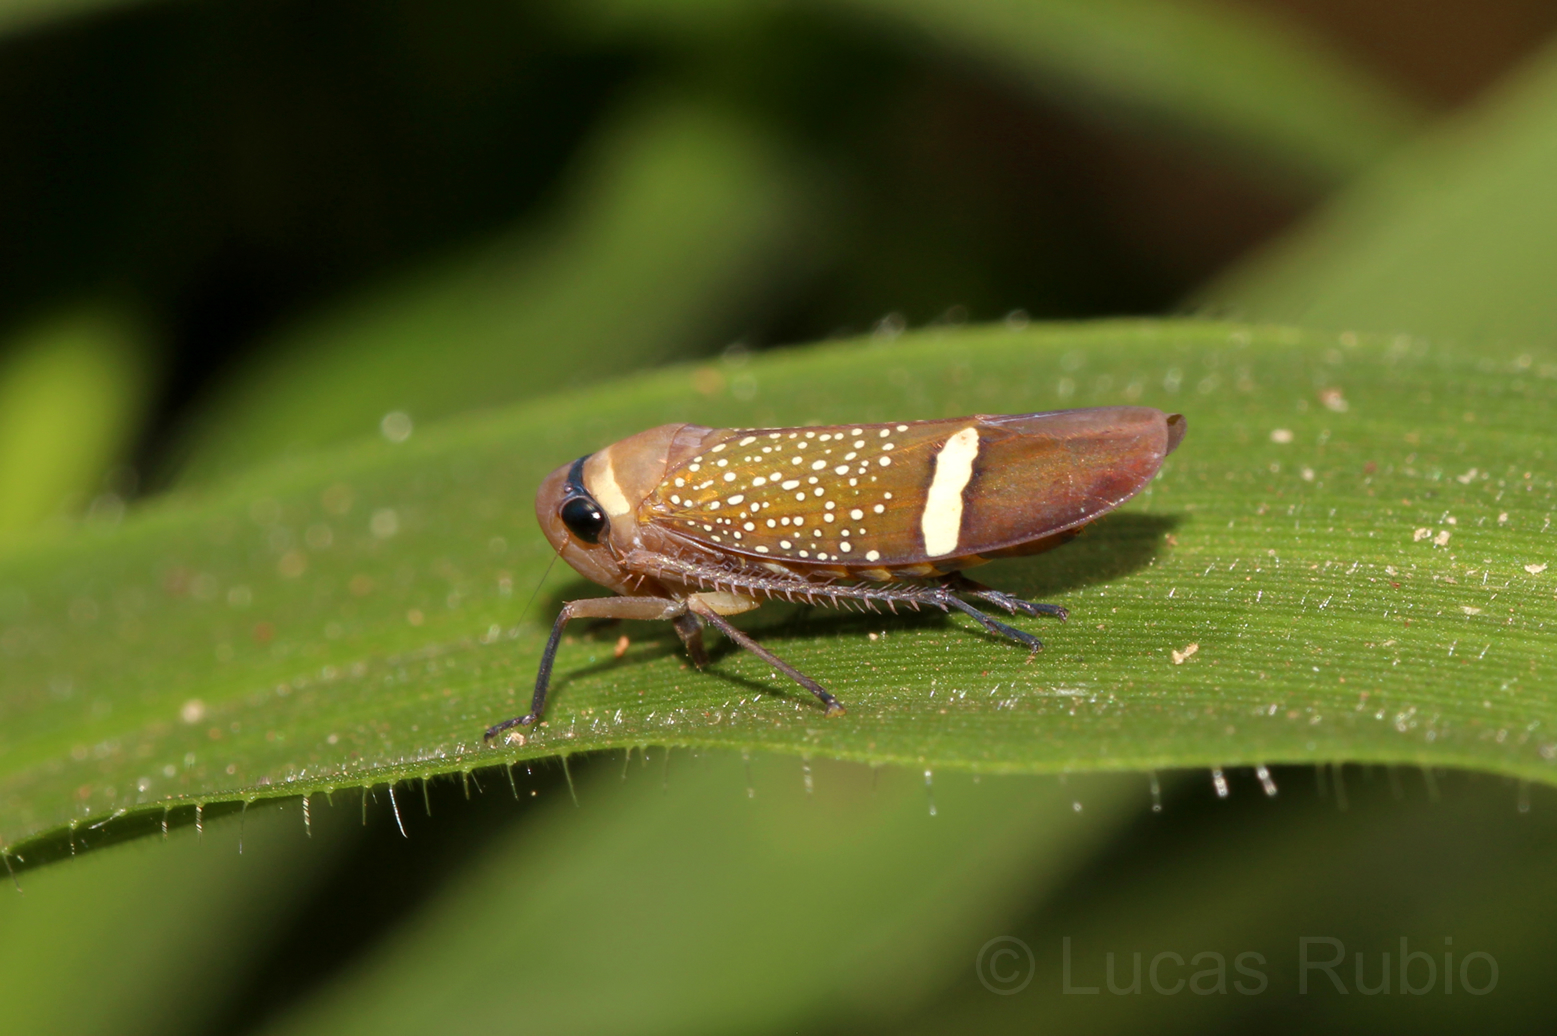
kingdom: Animalia
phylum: Arthropoda
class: Insecta
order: Hemiptera
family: Cicadellidae
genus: Scoposcartula
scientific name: Scoposcartula limitata
